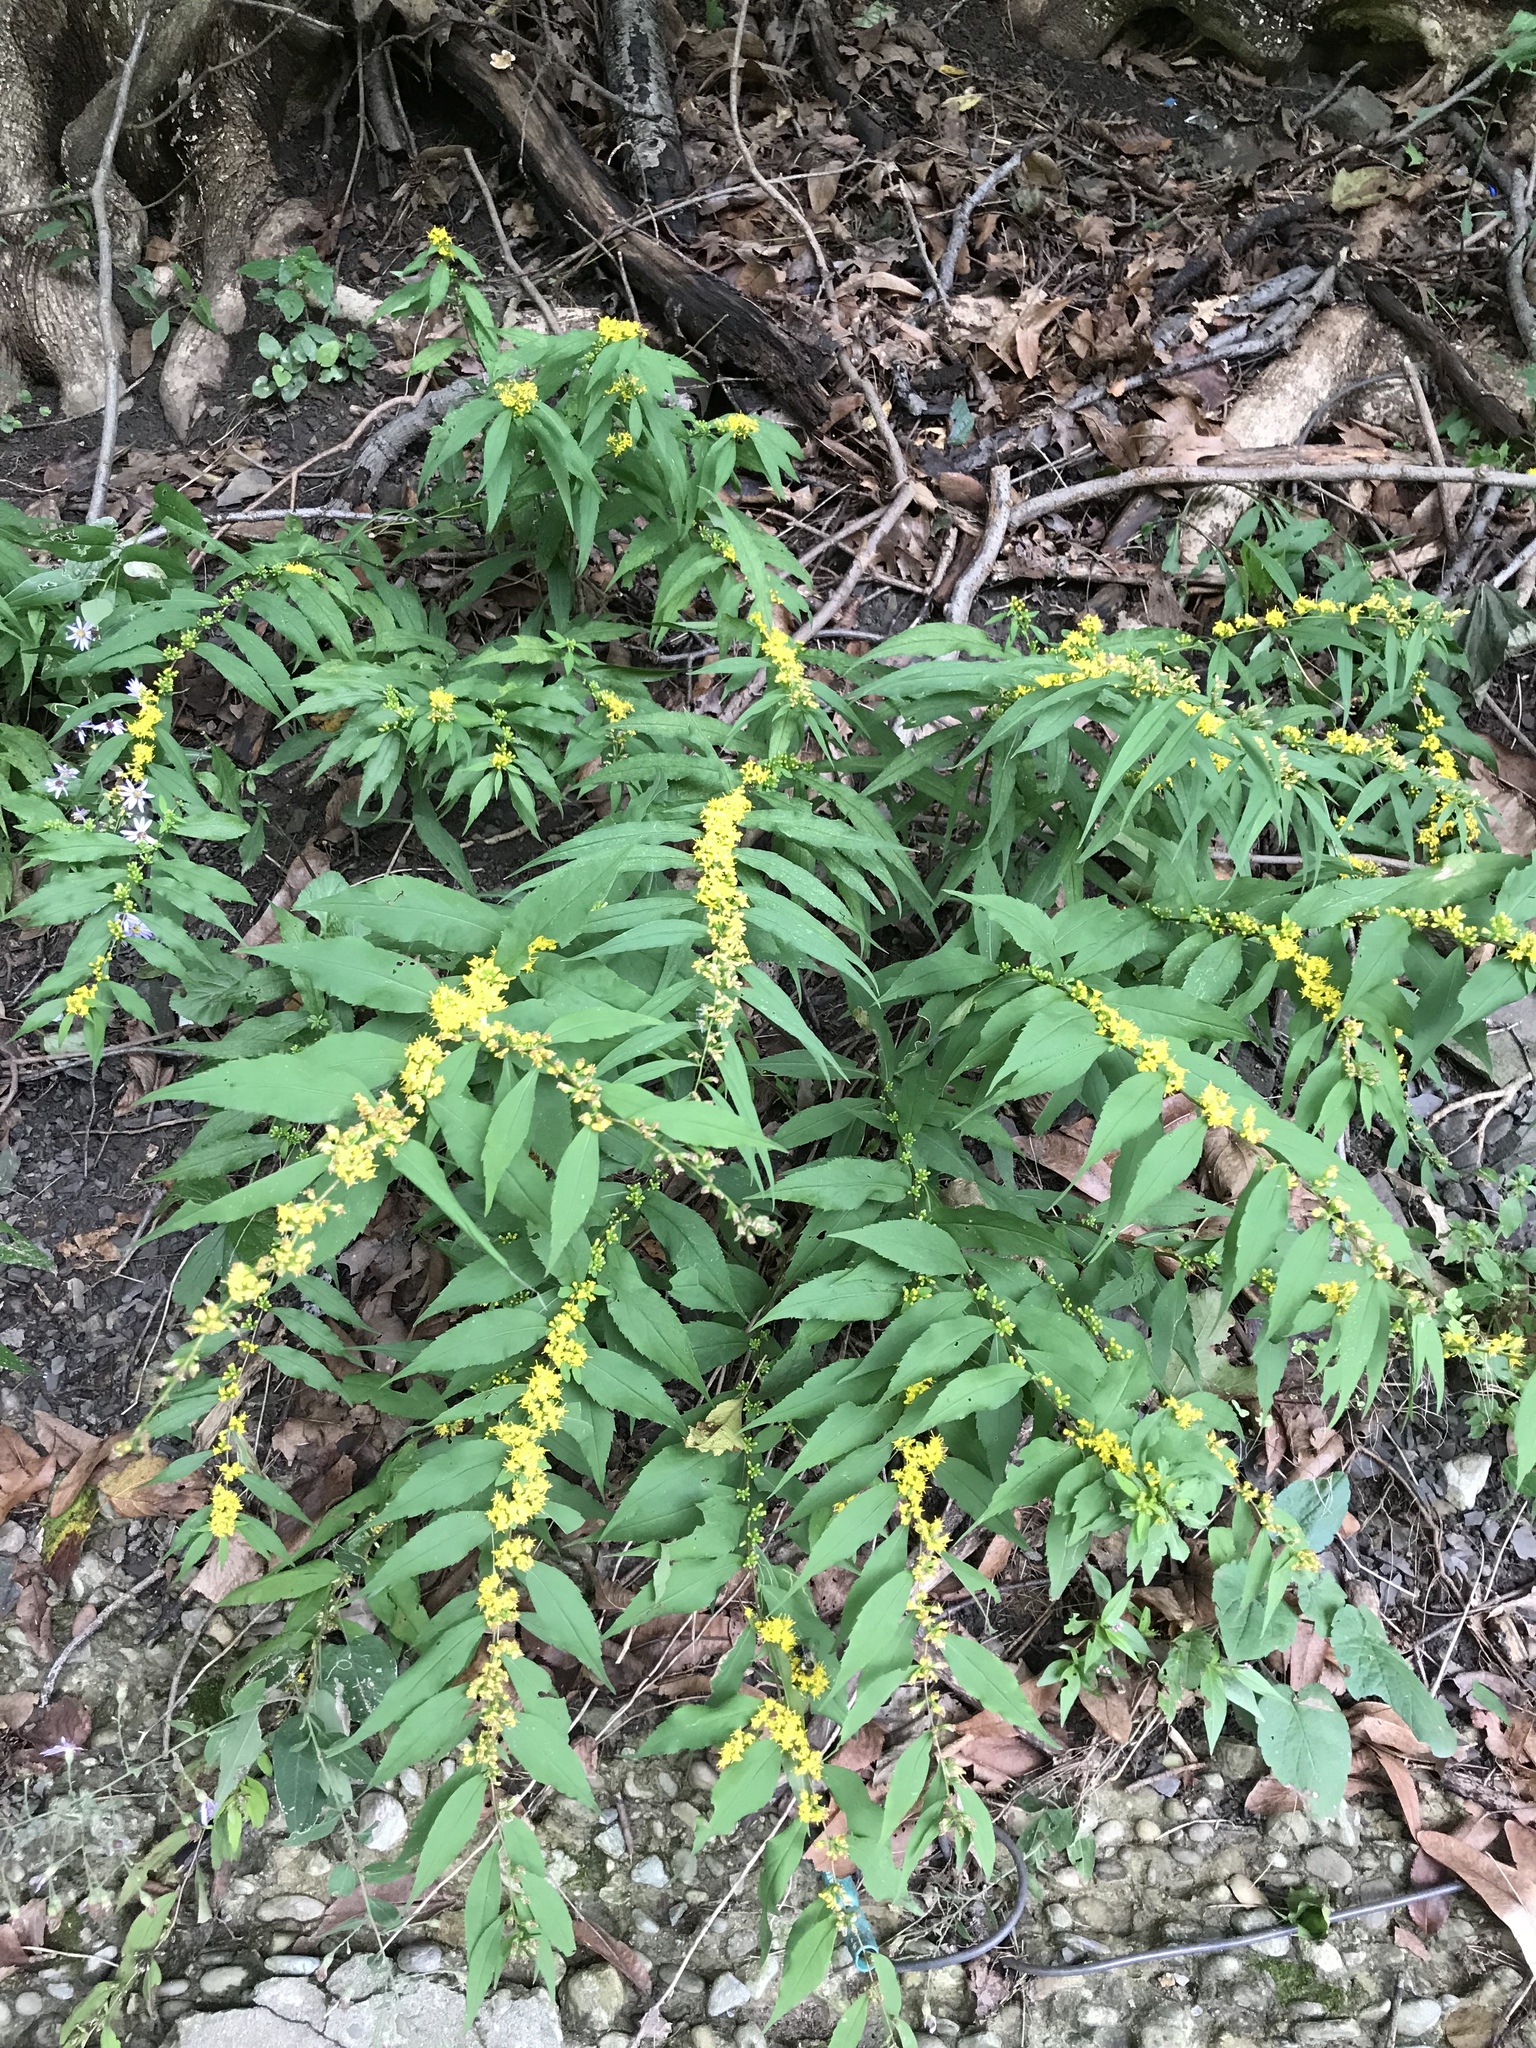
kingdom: Plantae
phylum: Tracheophyta
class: Magnoliopsida
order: Asterales
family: Asteraceae
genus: Solidago
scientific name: Solidago caesia
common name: Woodland goldenrod
